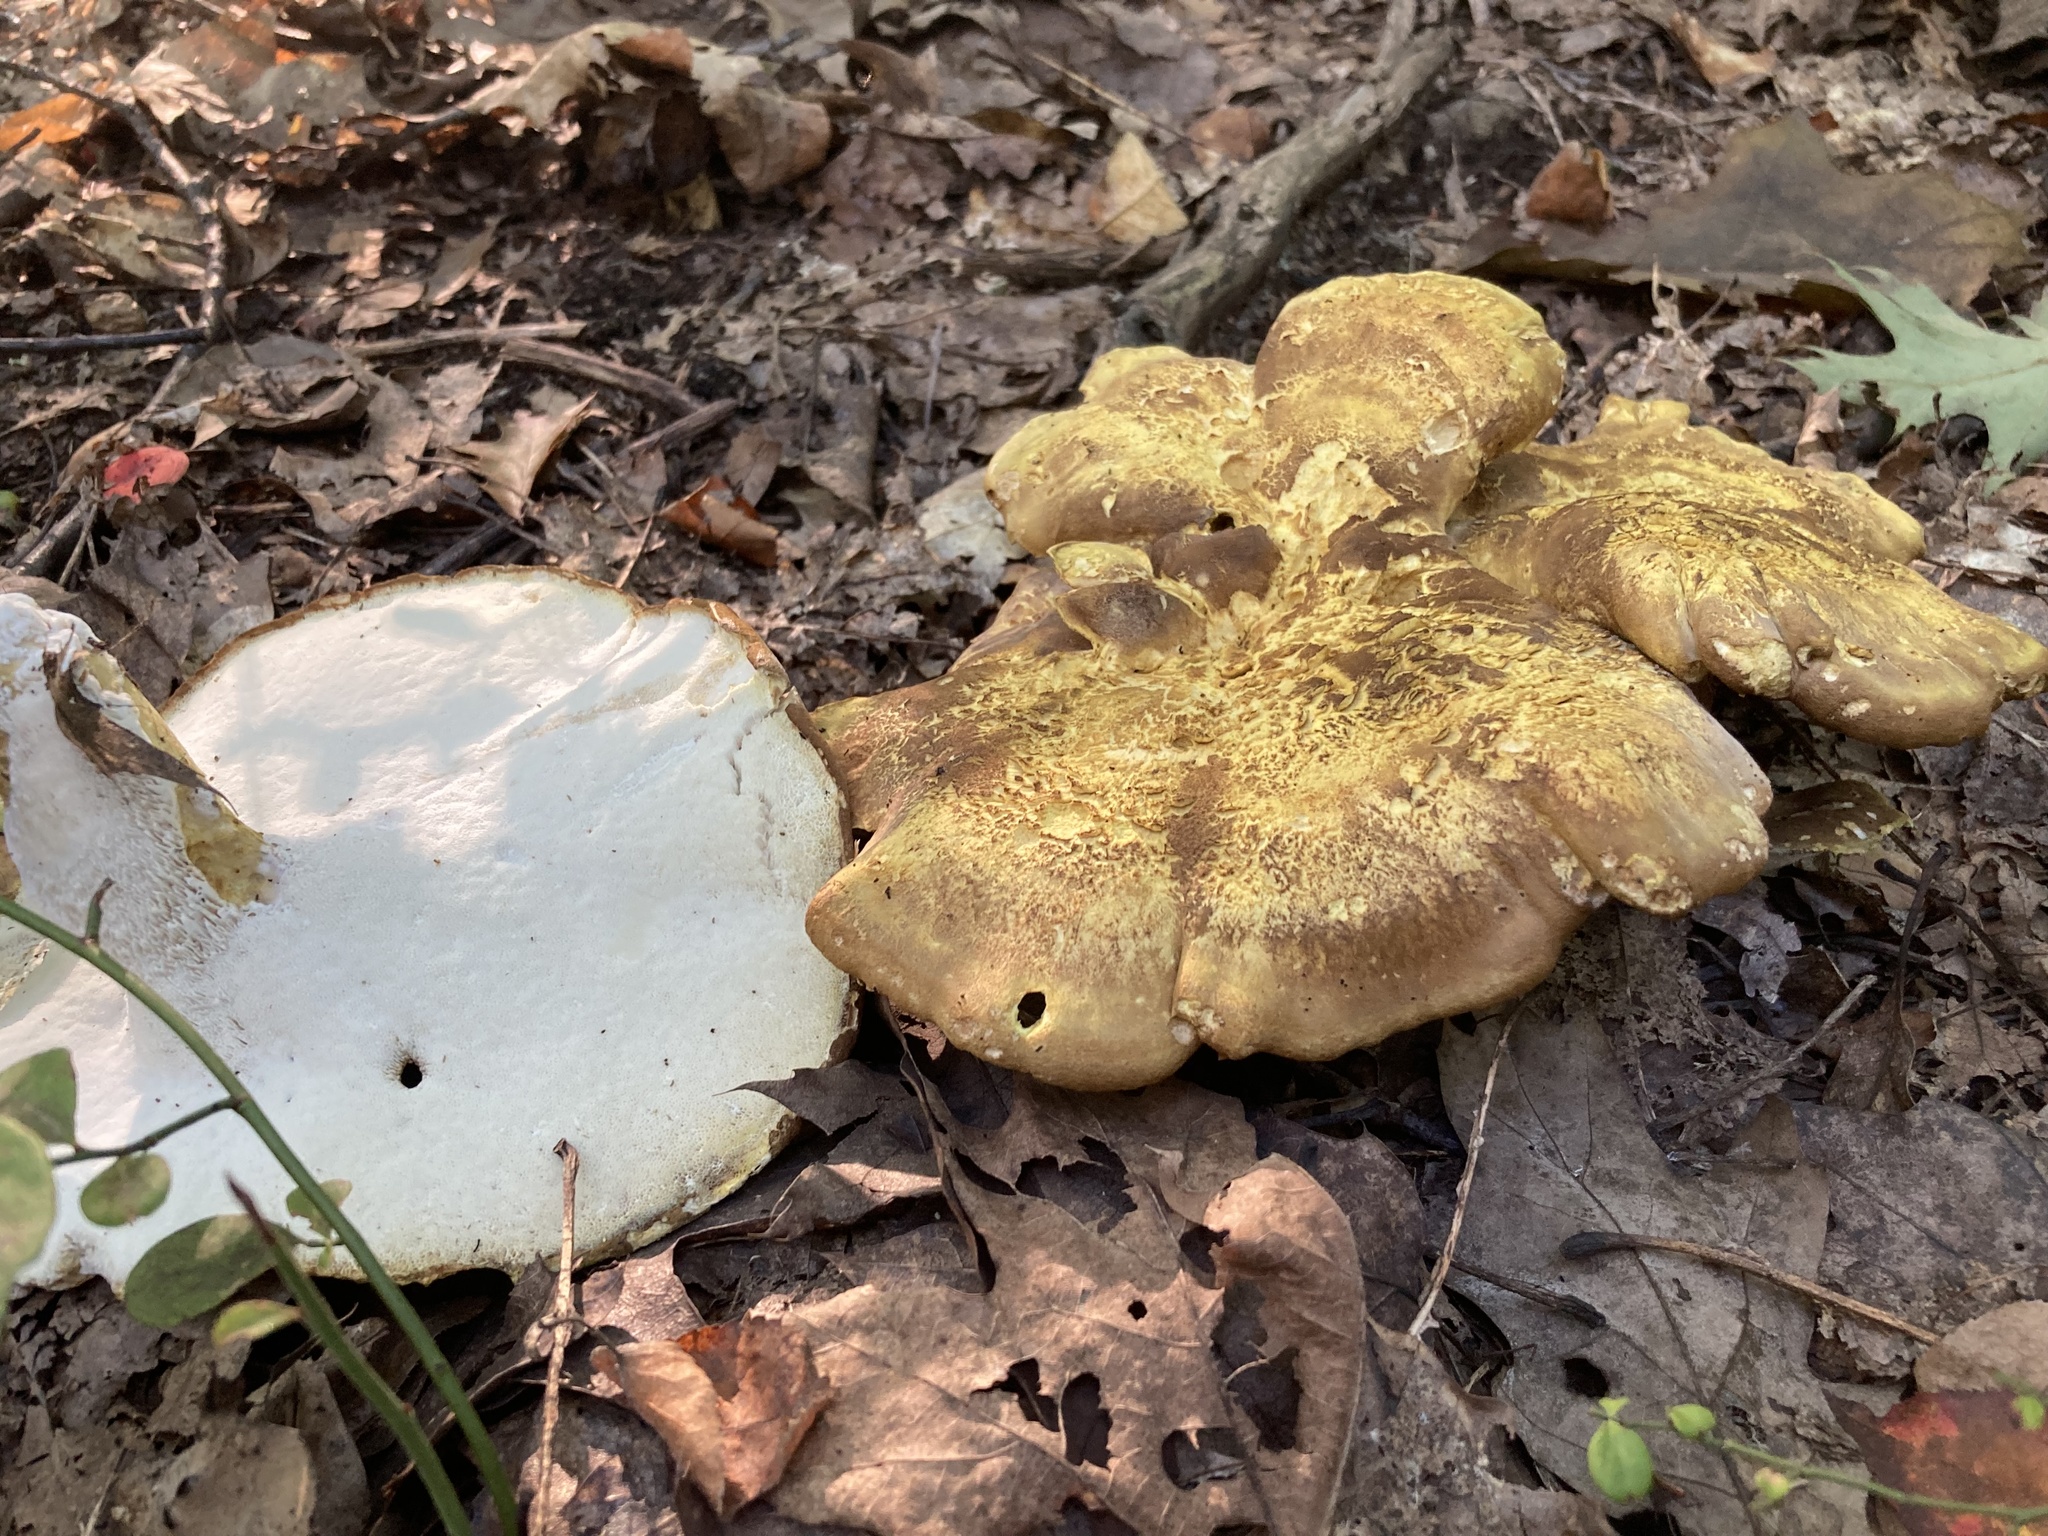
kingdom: Fungi
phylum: Basidiomycota
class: Agaricomycetes
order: Russulales
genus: Laeticutis
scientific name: Laeticutis cristata
